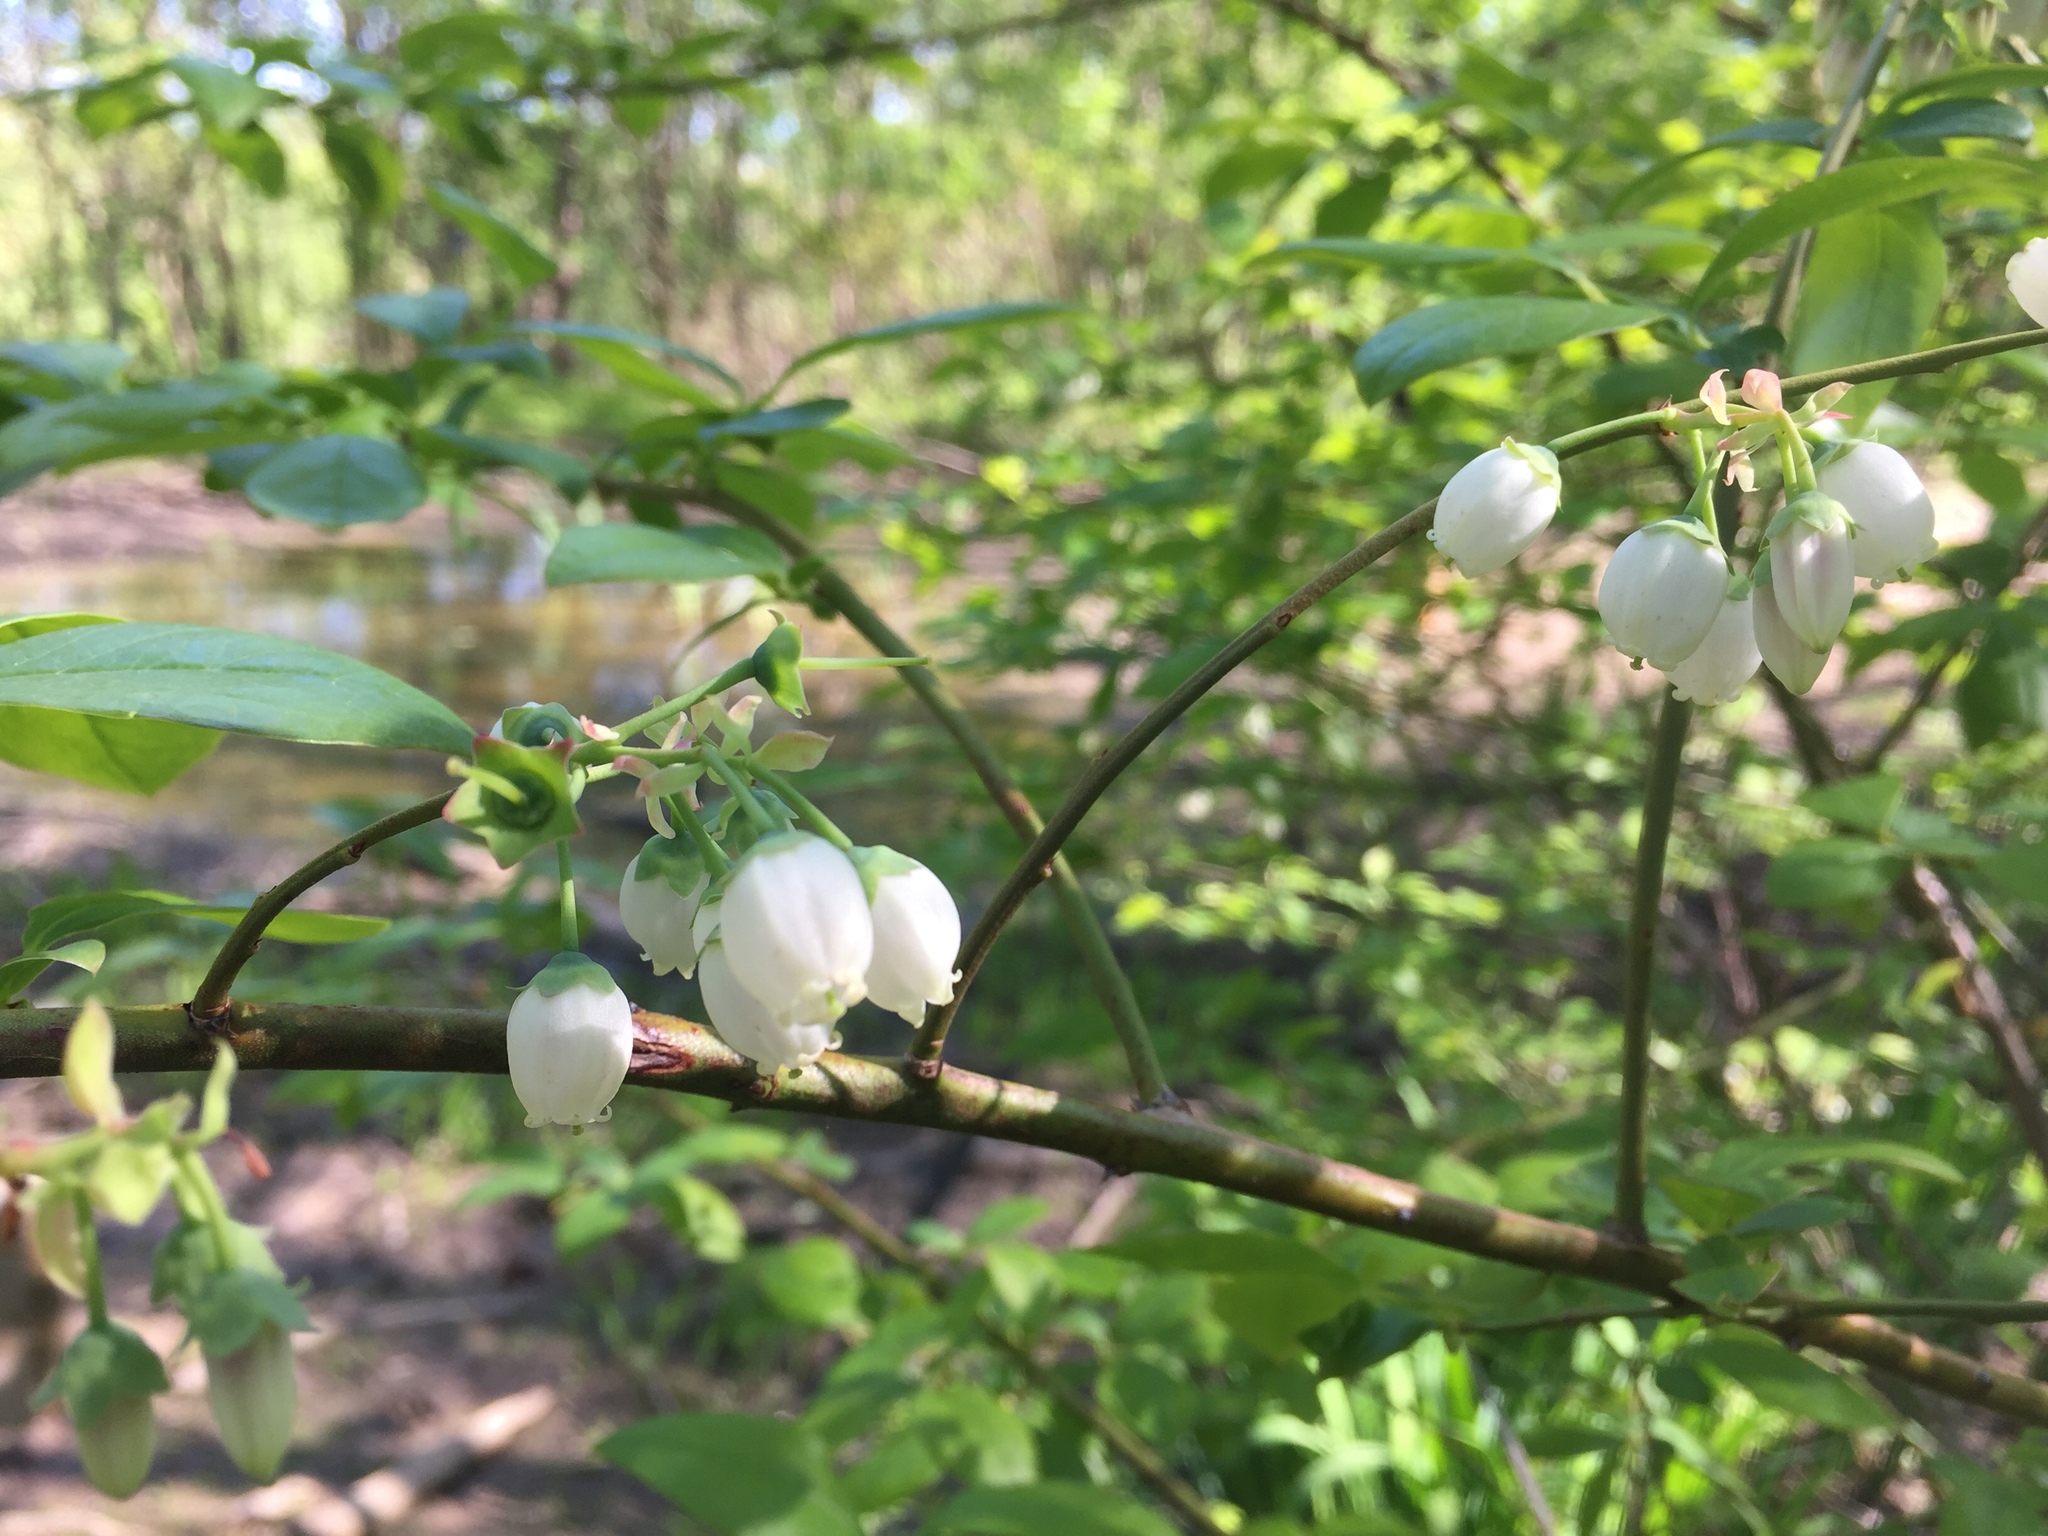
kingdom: Plantae
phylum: Tracheophyta
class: Magnoliopsida
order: Ericales
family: Ericaceae
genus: Vaccinium
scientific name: Vaccinium corymbosum
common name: Blueberry
